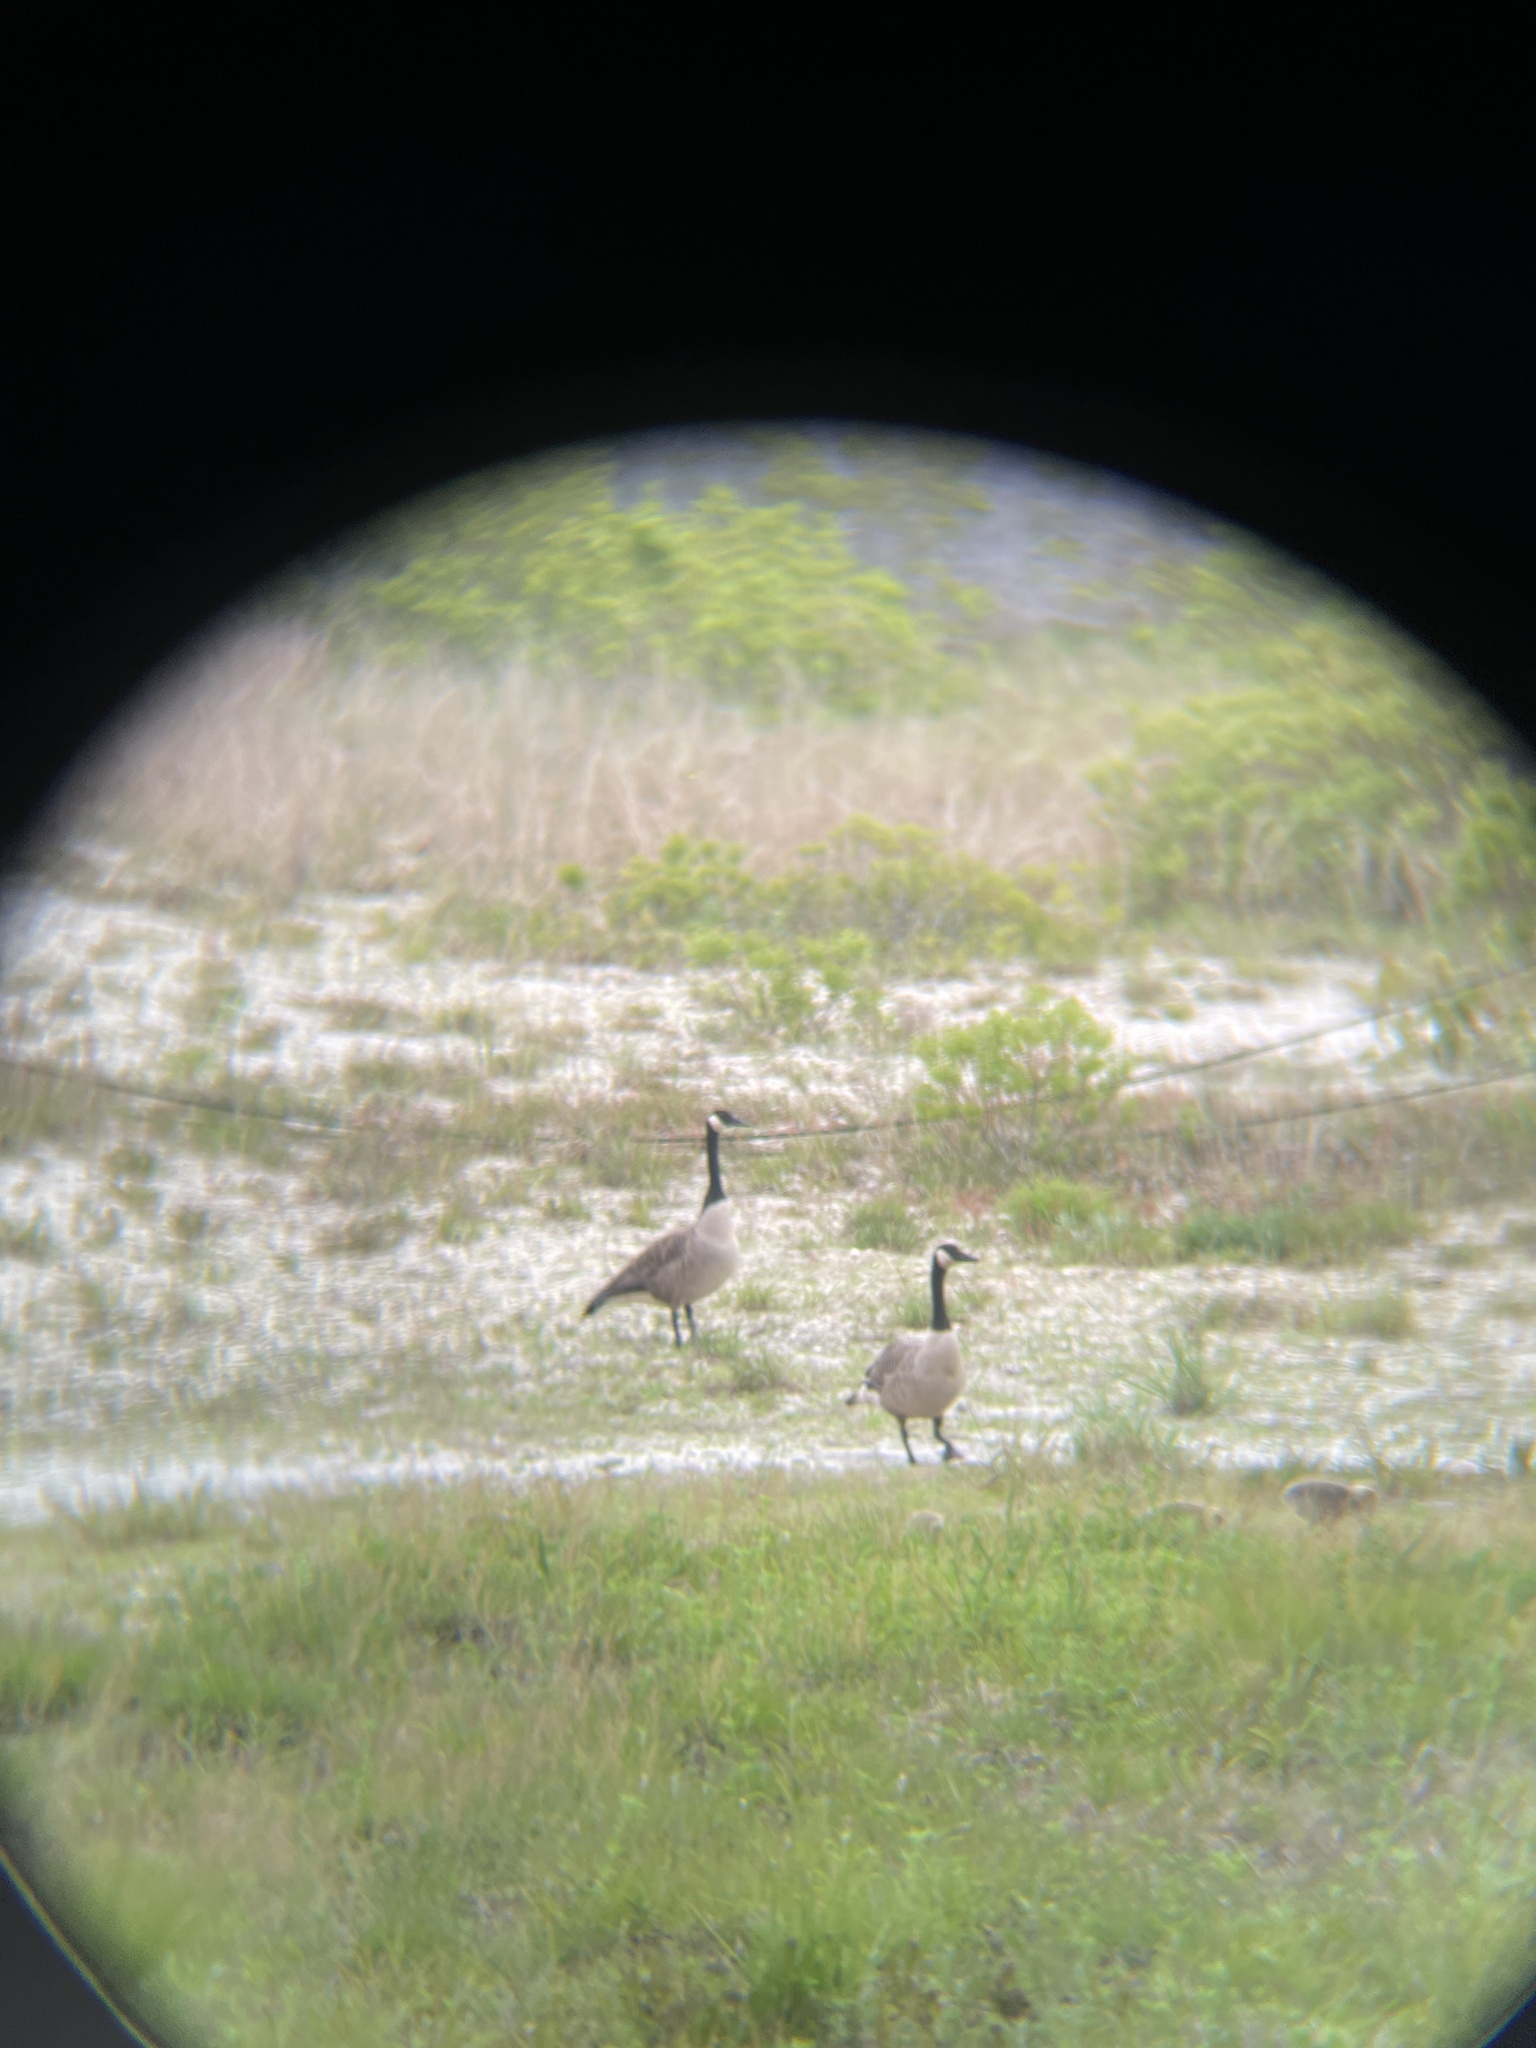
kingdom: Animalia
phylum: Chordata
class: Aves
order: Anseriformes
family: Anatidae
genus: Branta
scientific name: Branta canadensis
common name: Canada goose
